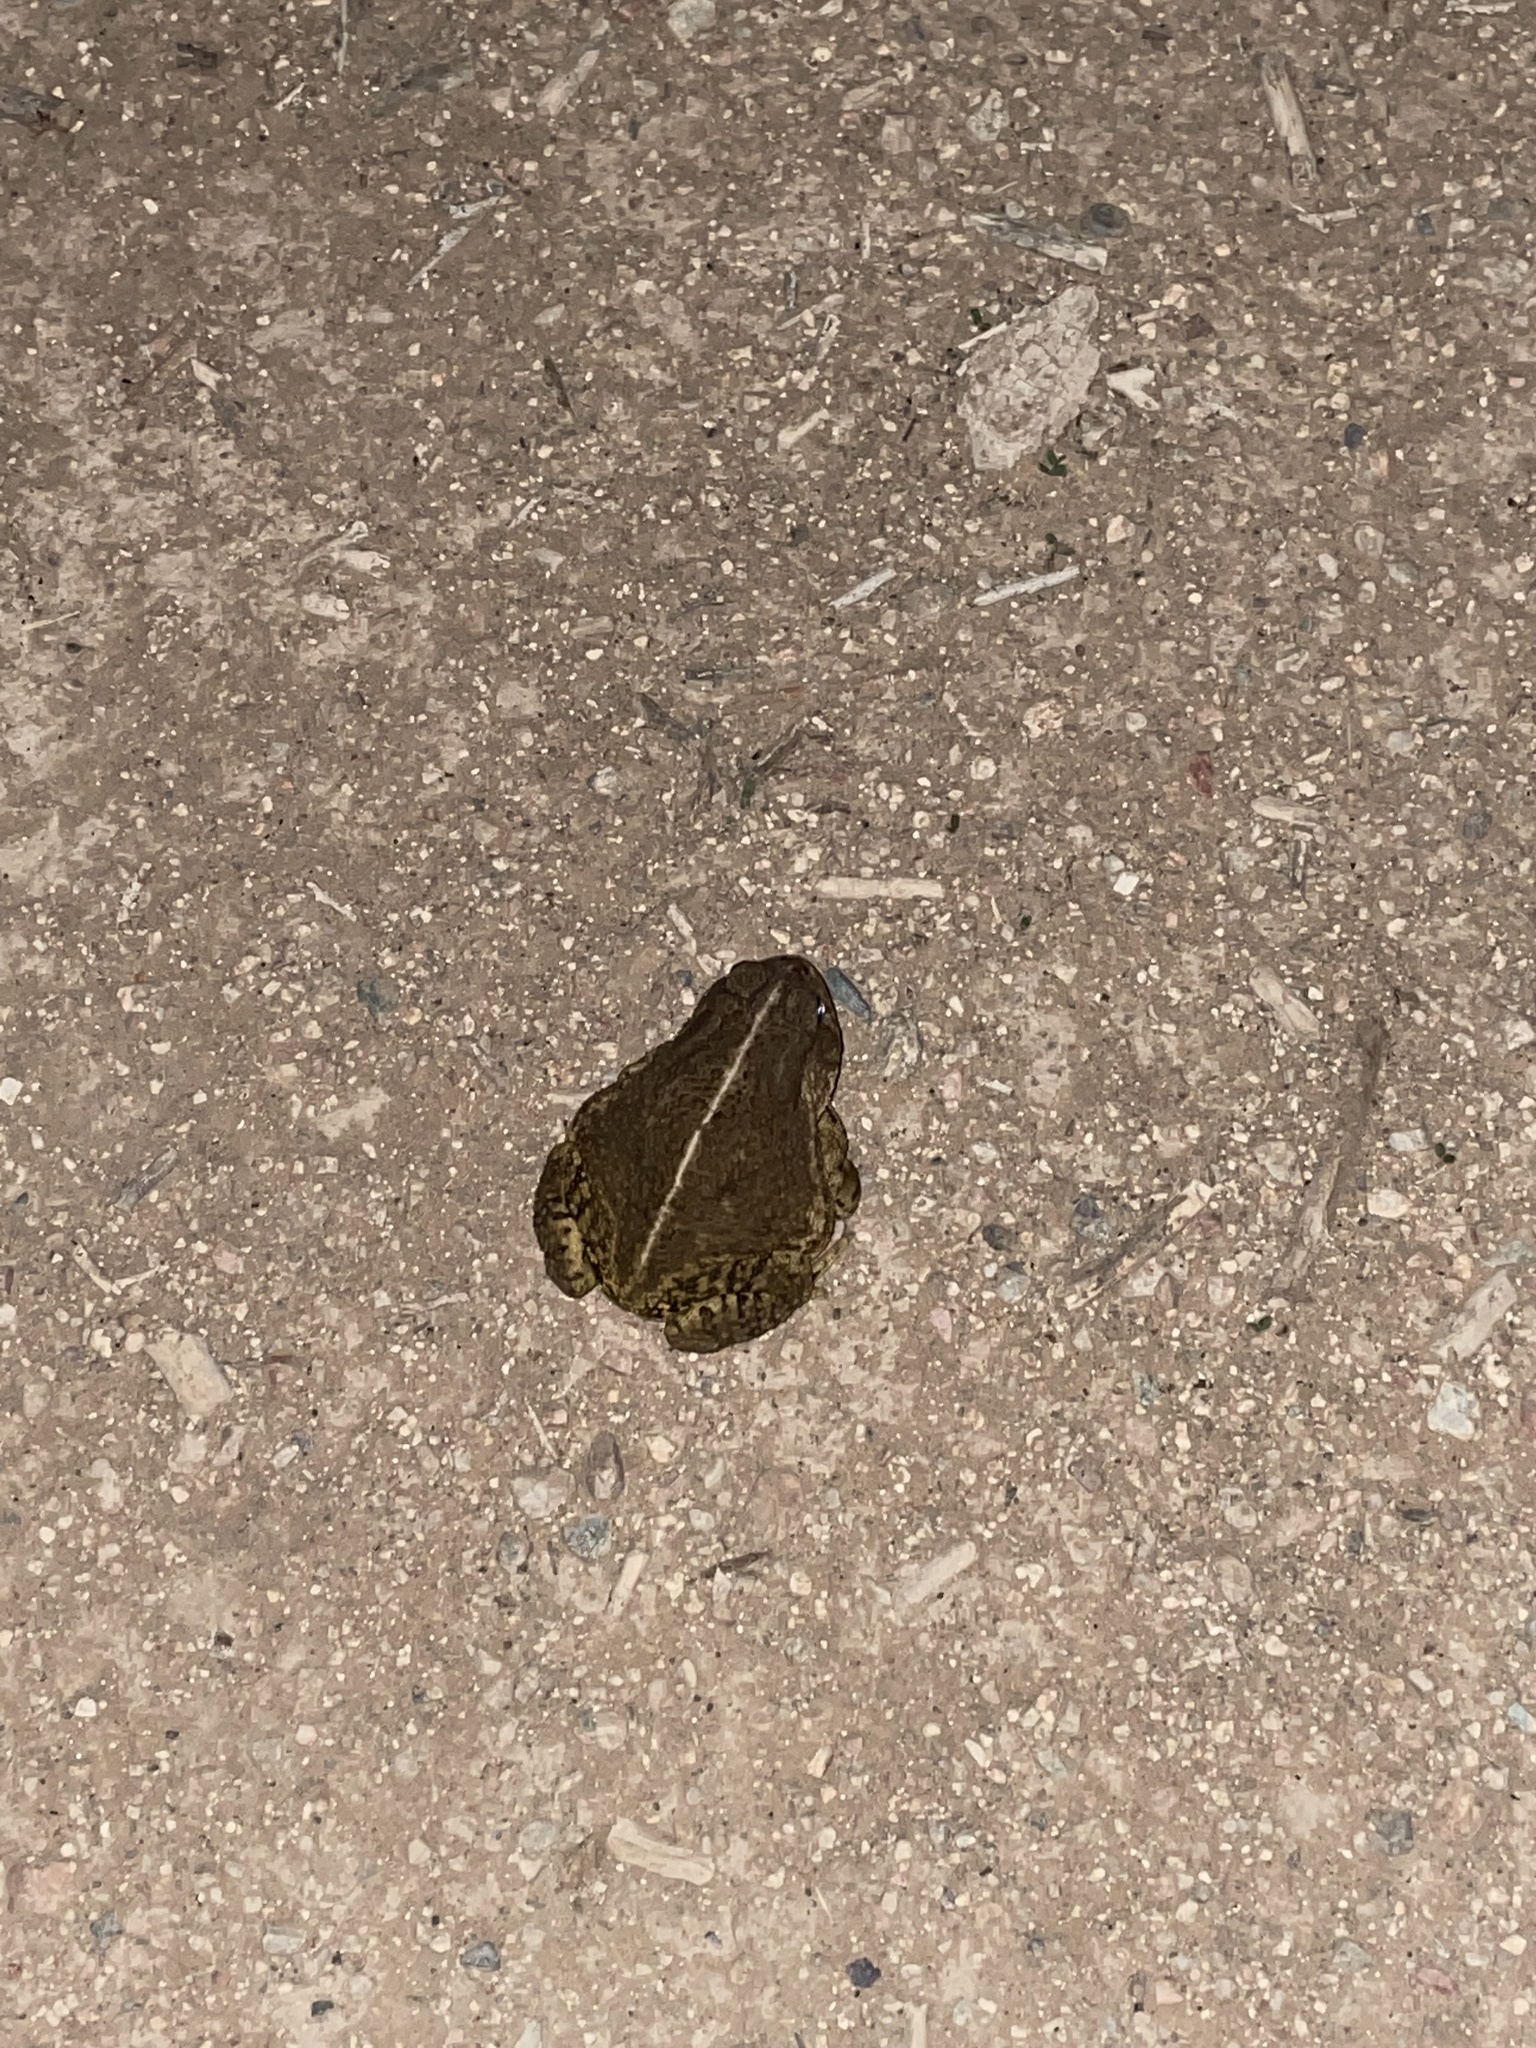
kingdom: Animalia
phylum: Chordata
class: Amphibia
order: Anura
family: Bufonidae
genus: Anaxyrus
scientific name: Anaxyrus woodhousii
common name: Woodhouse's toad
